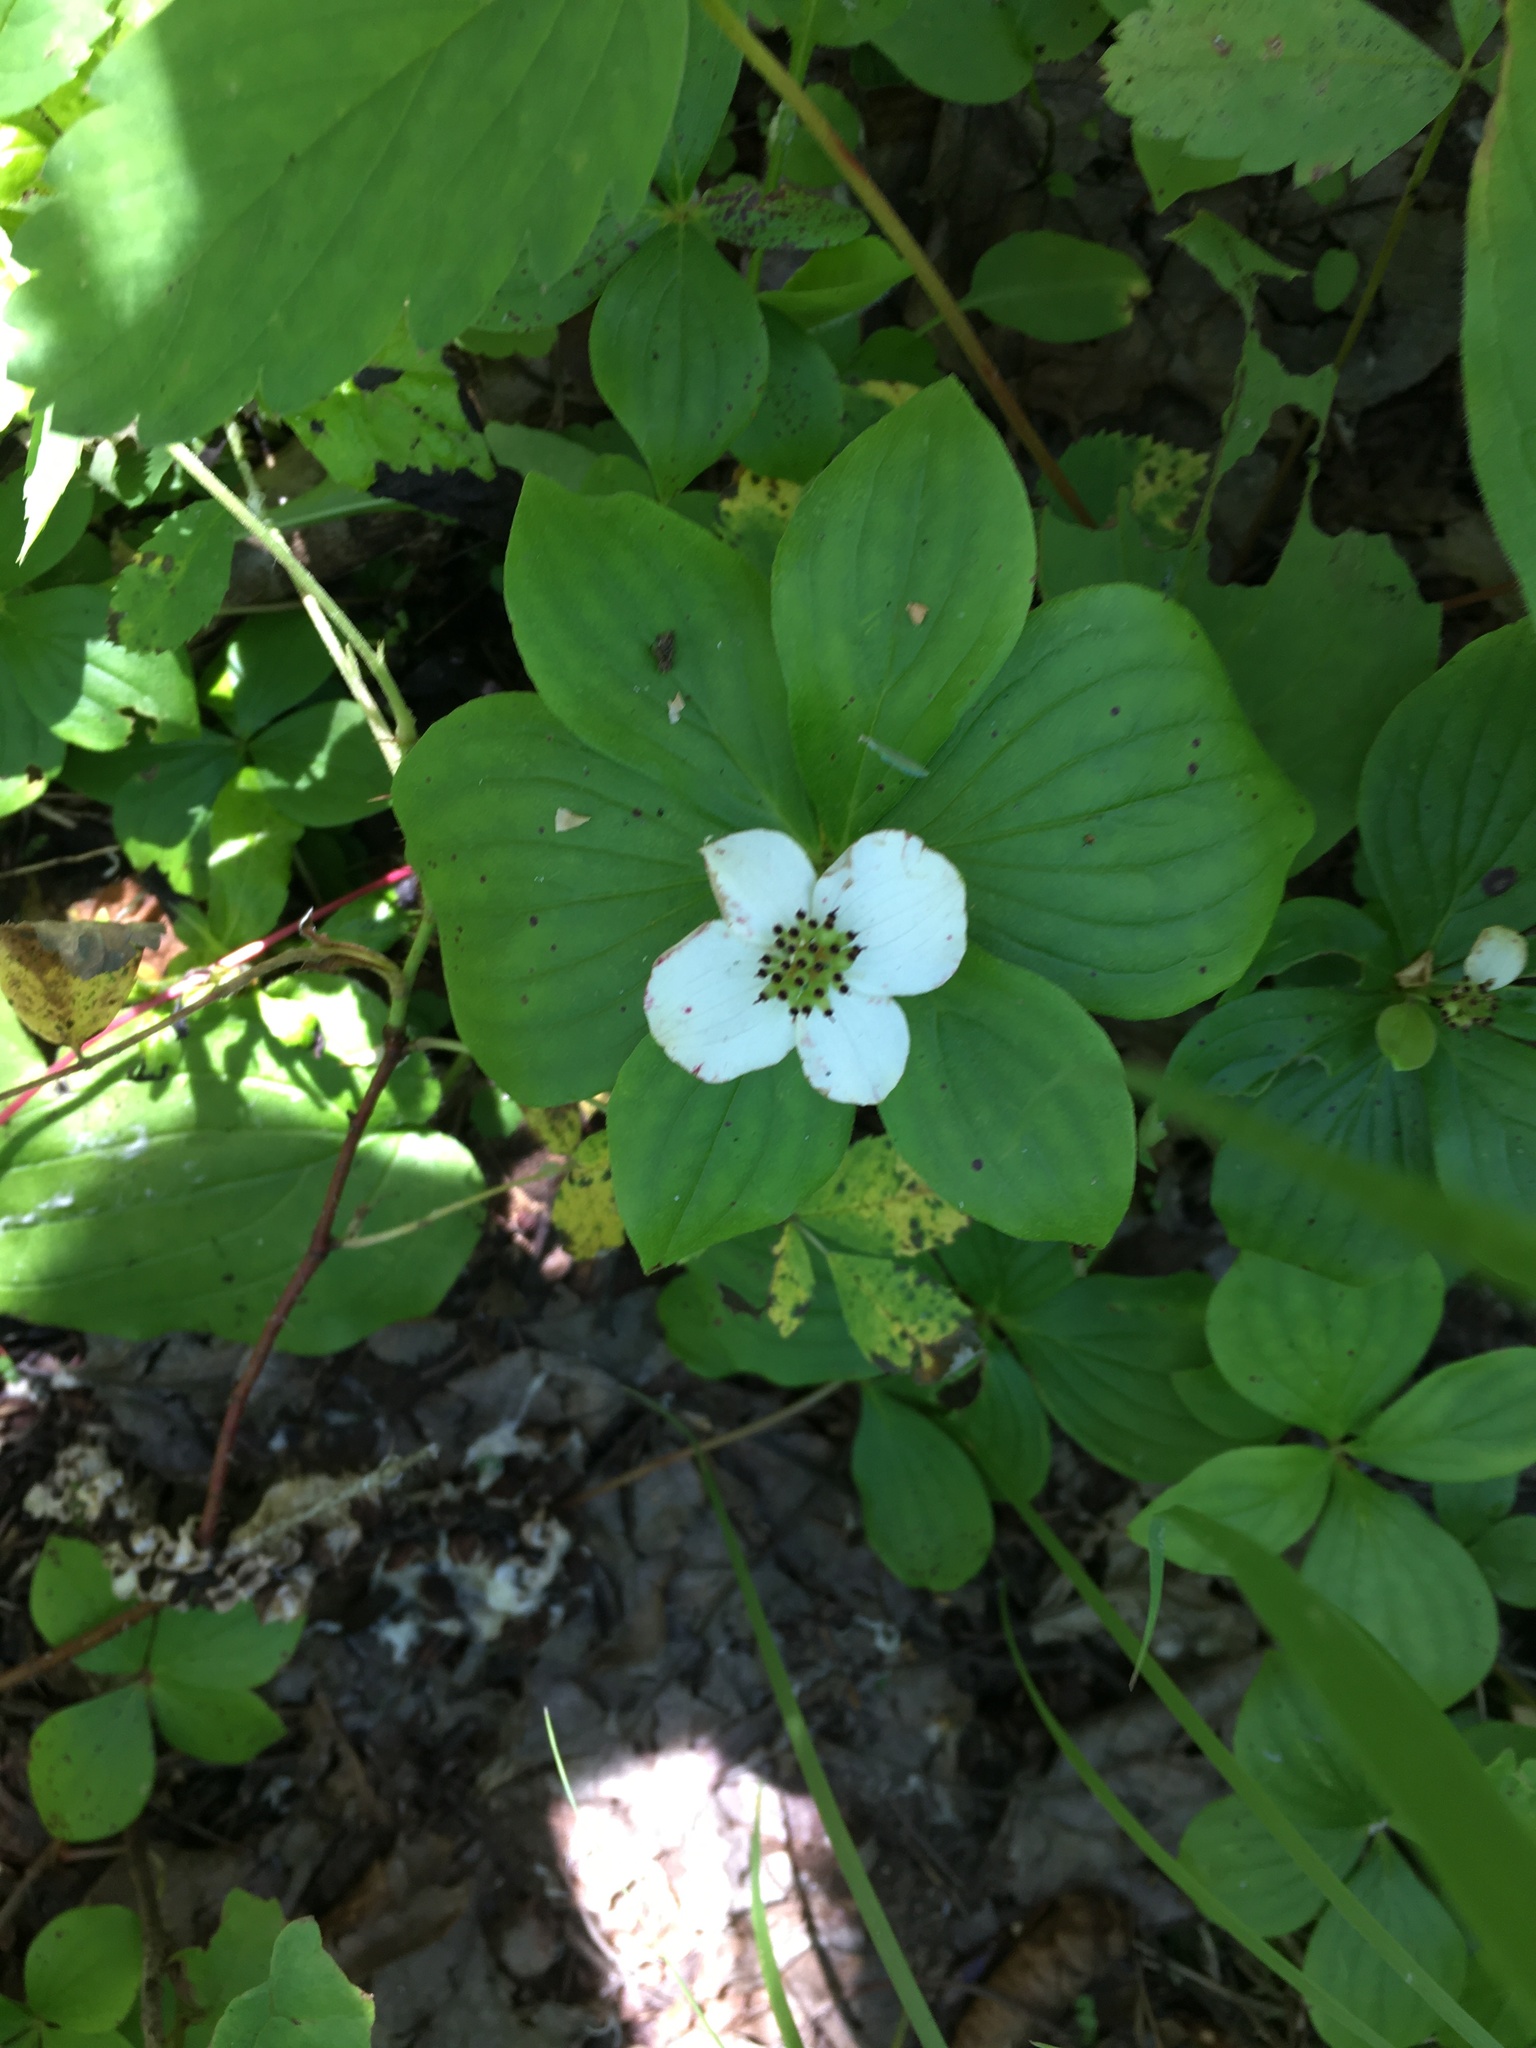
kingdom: Plantae
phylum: Tracheophyta
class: Magnoliopsida
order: Cornales
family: Cornaceae
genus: Cornus
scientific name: Cornus canadensis
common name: Creeping dogwood
